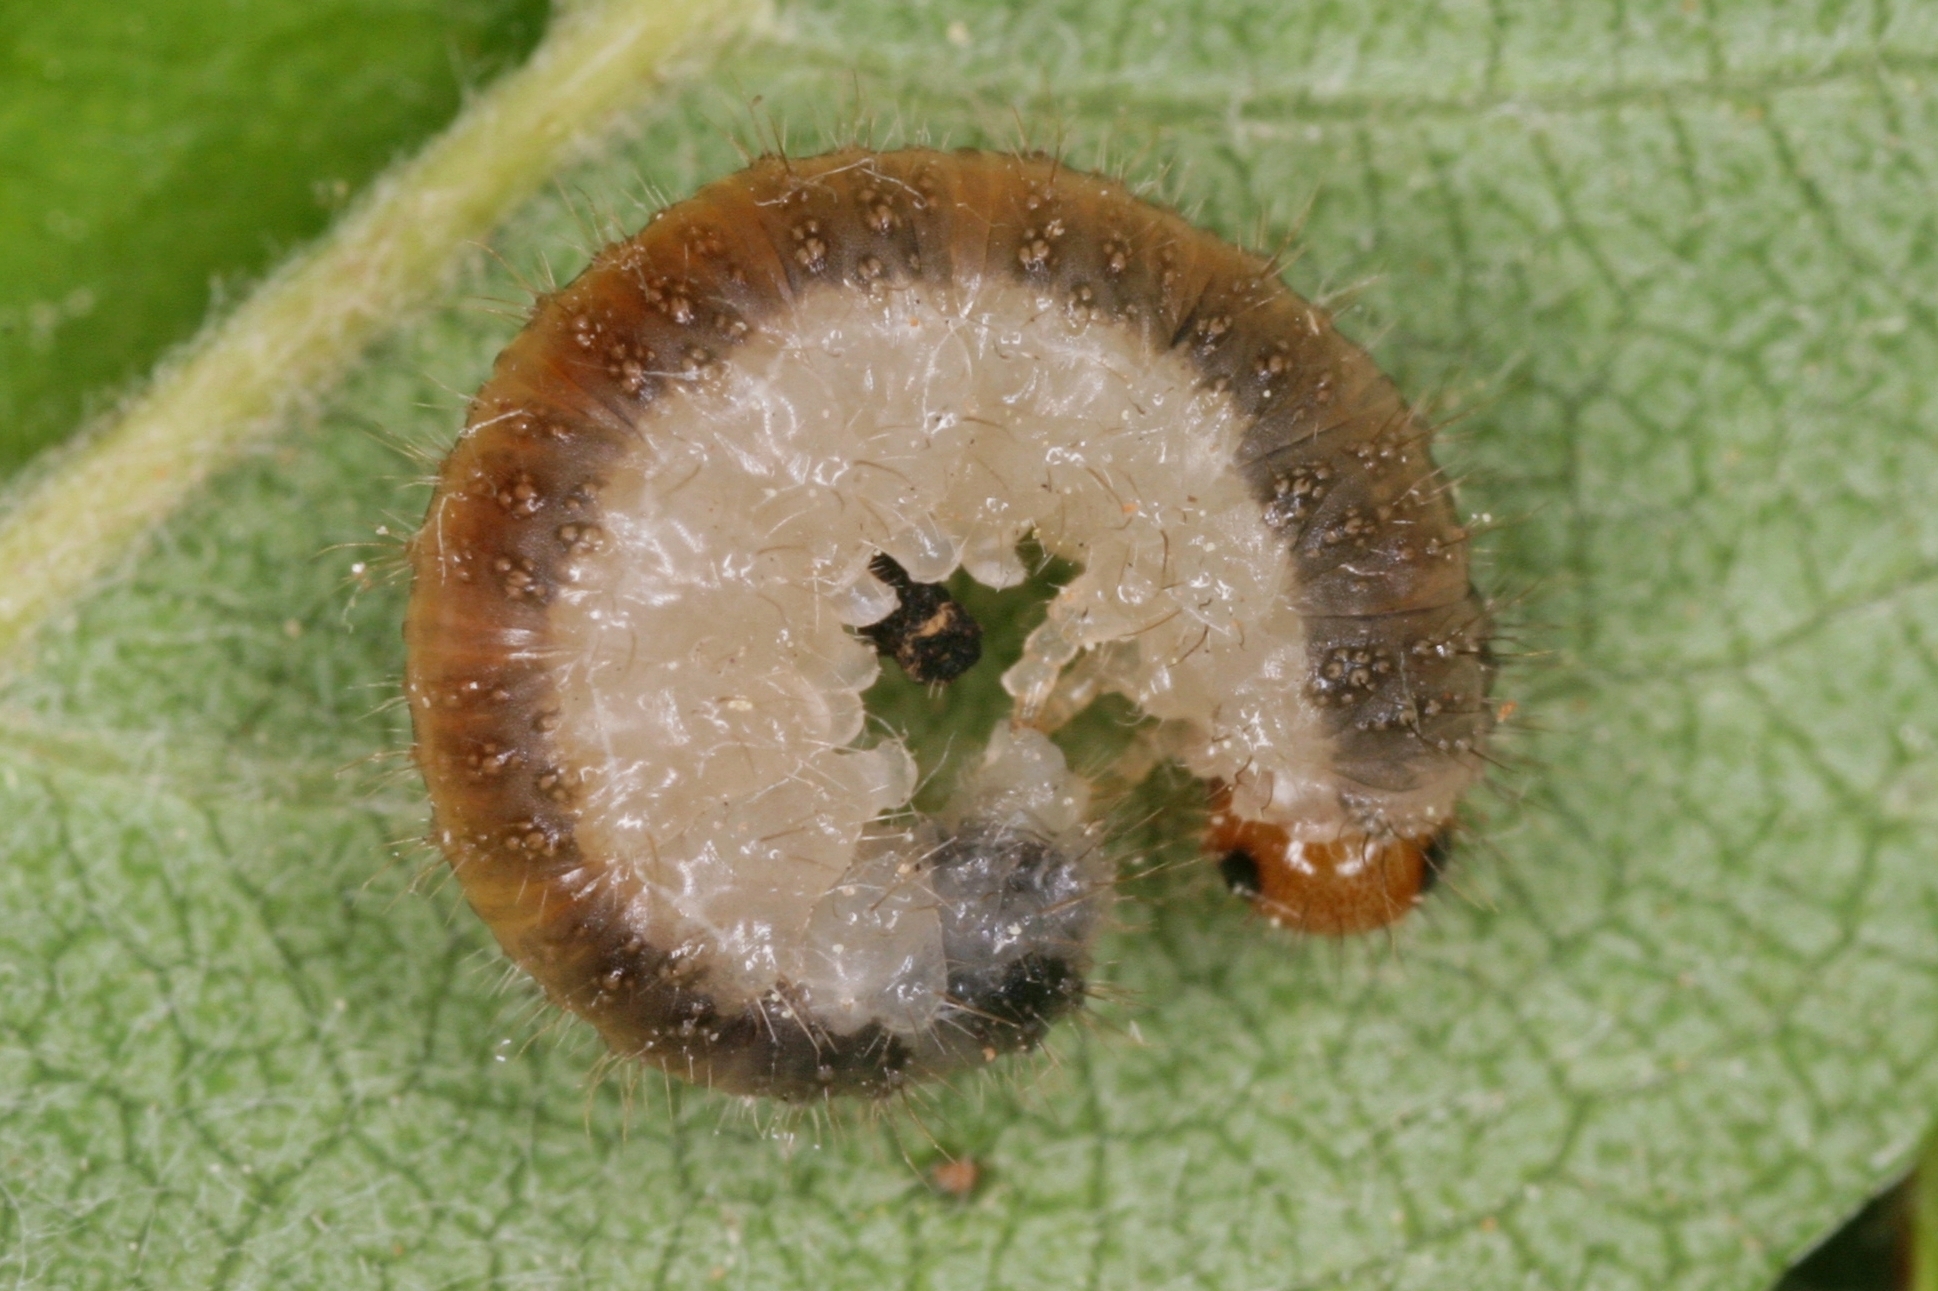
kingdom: Animalia
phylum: Arthropoda
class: Insecta
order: Hymenoptera
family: Tenthredinidae
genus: Cladius
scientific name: Cladius compressicornis
